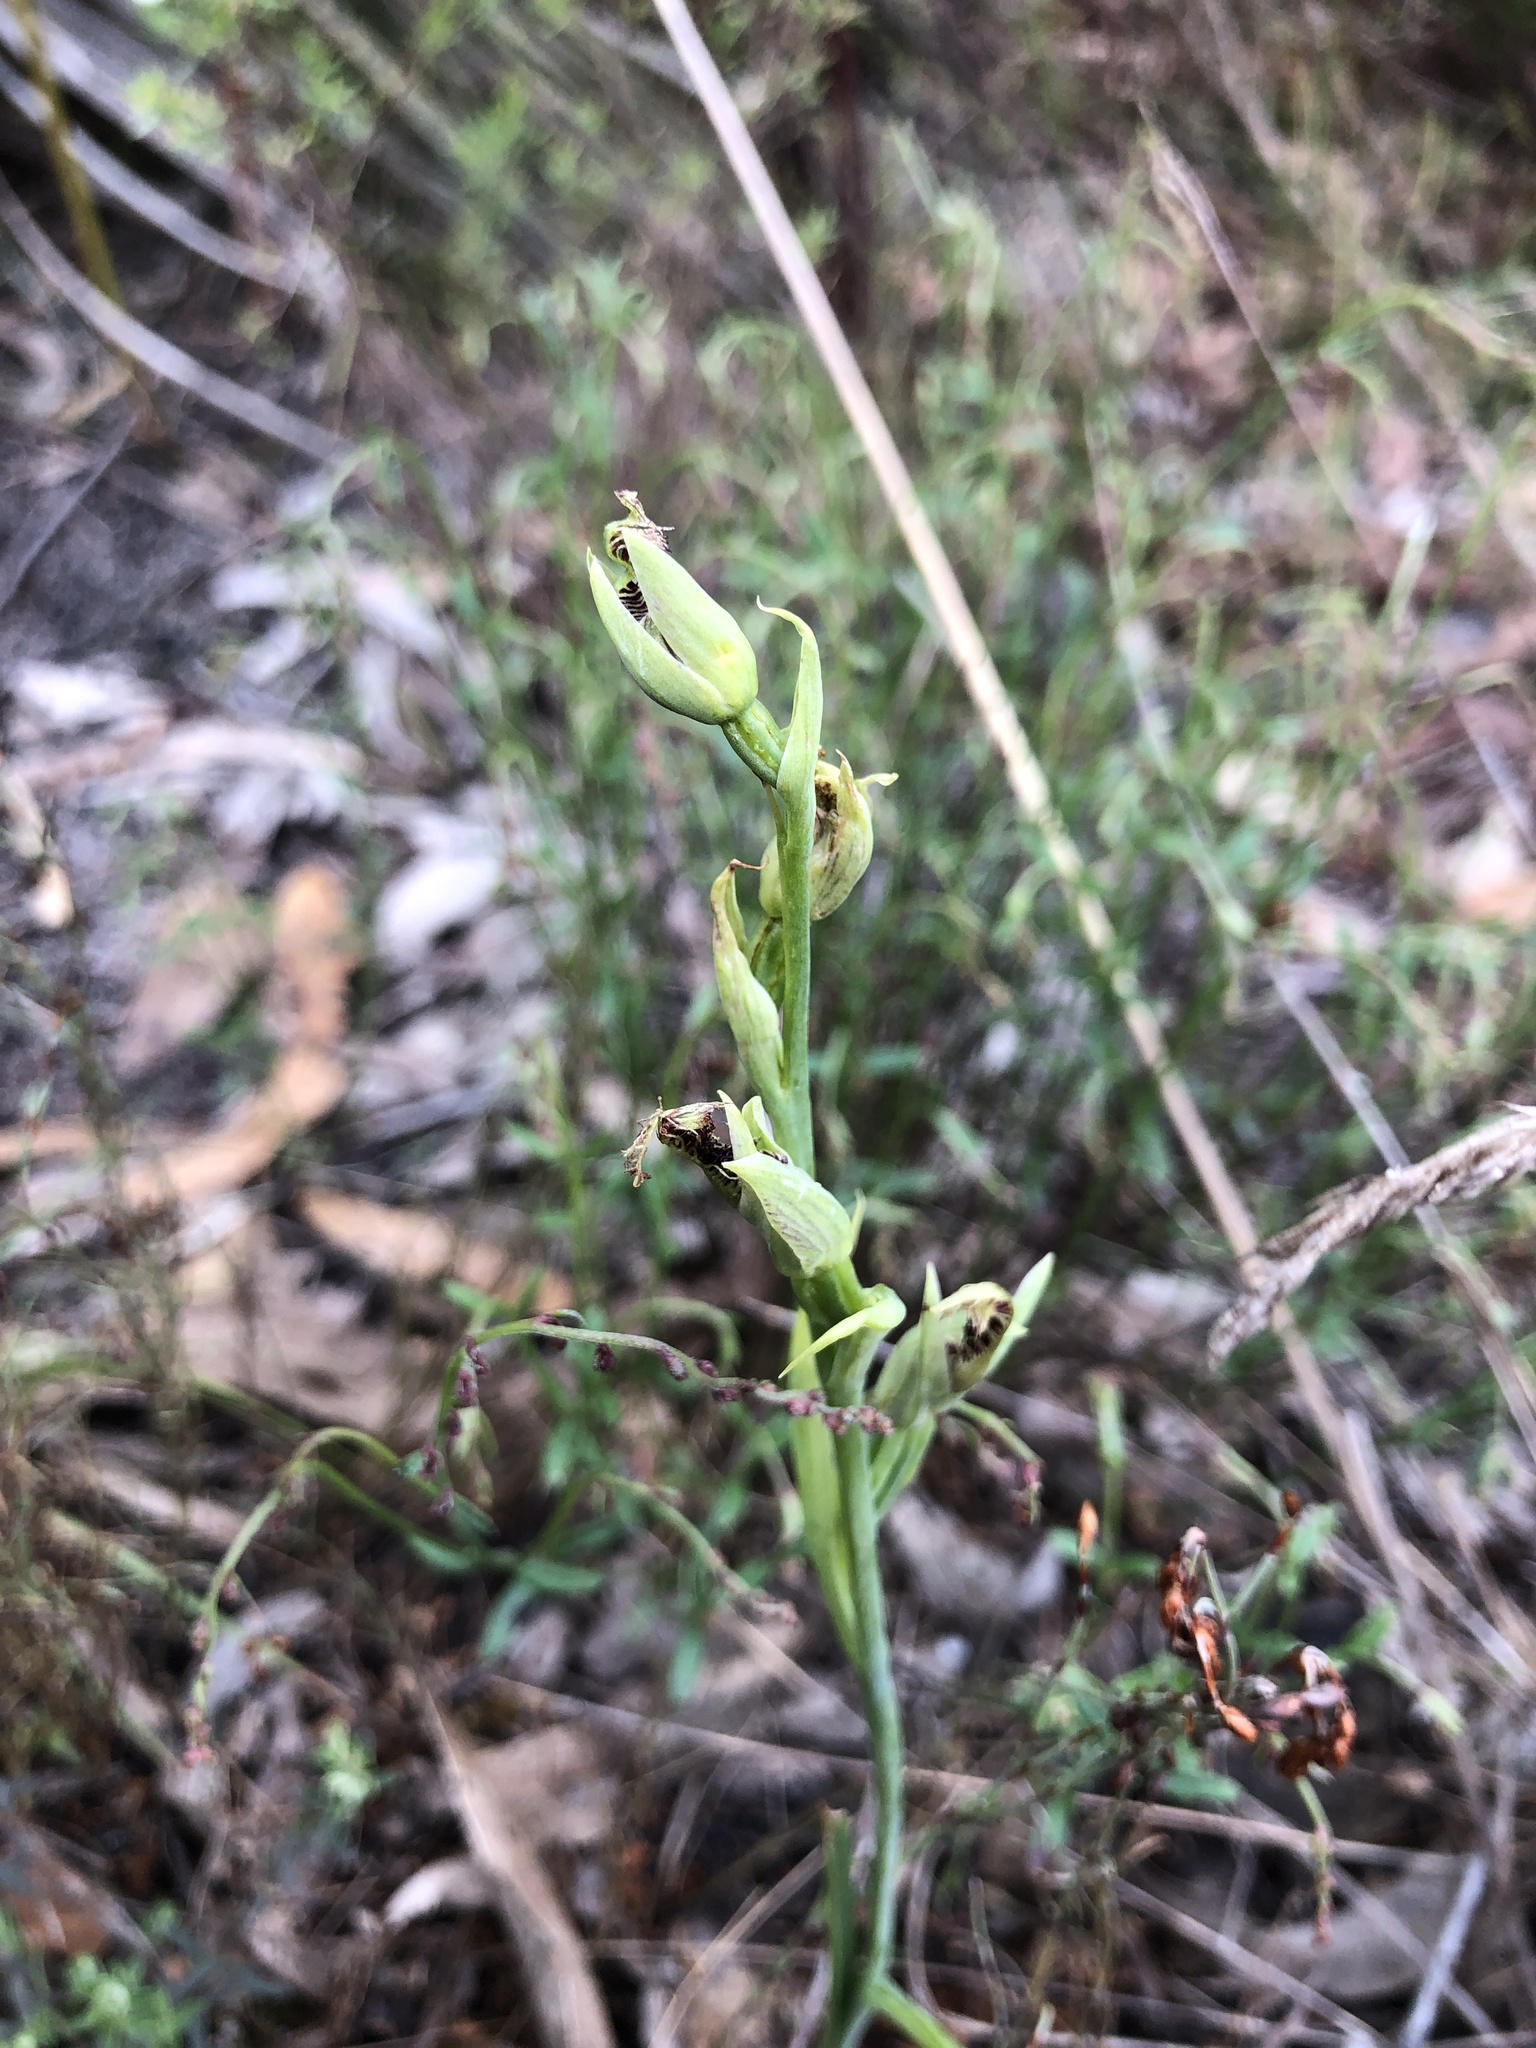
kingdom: Plantae
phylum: Tracheophyta
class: Liliopsida
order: Asparagales
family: Orchidaceae
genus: Calochilus
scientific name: Calochilus robertsonii
